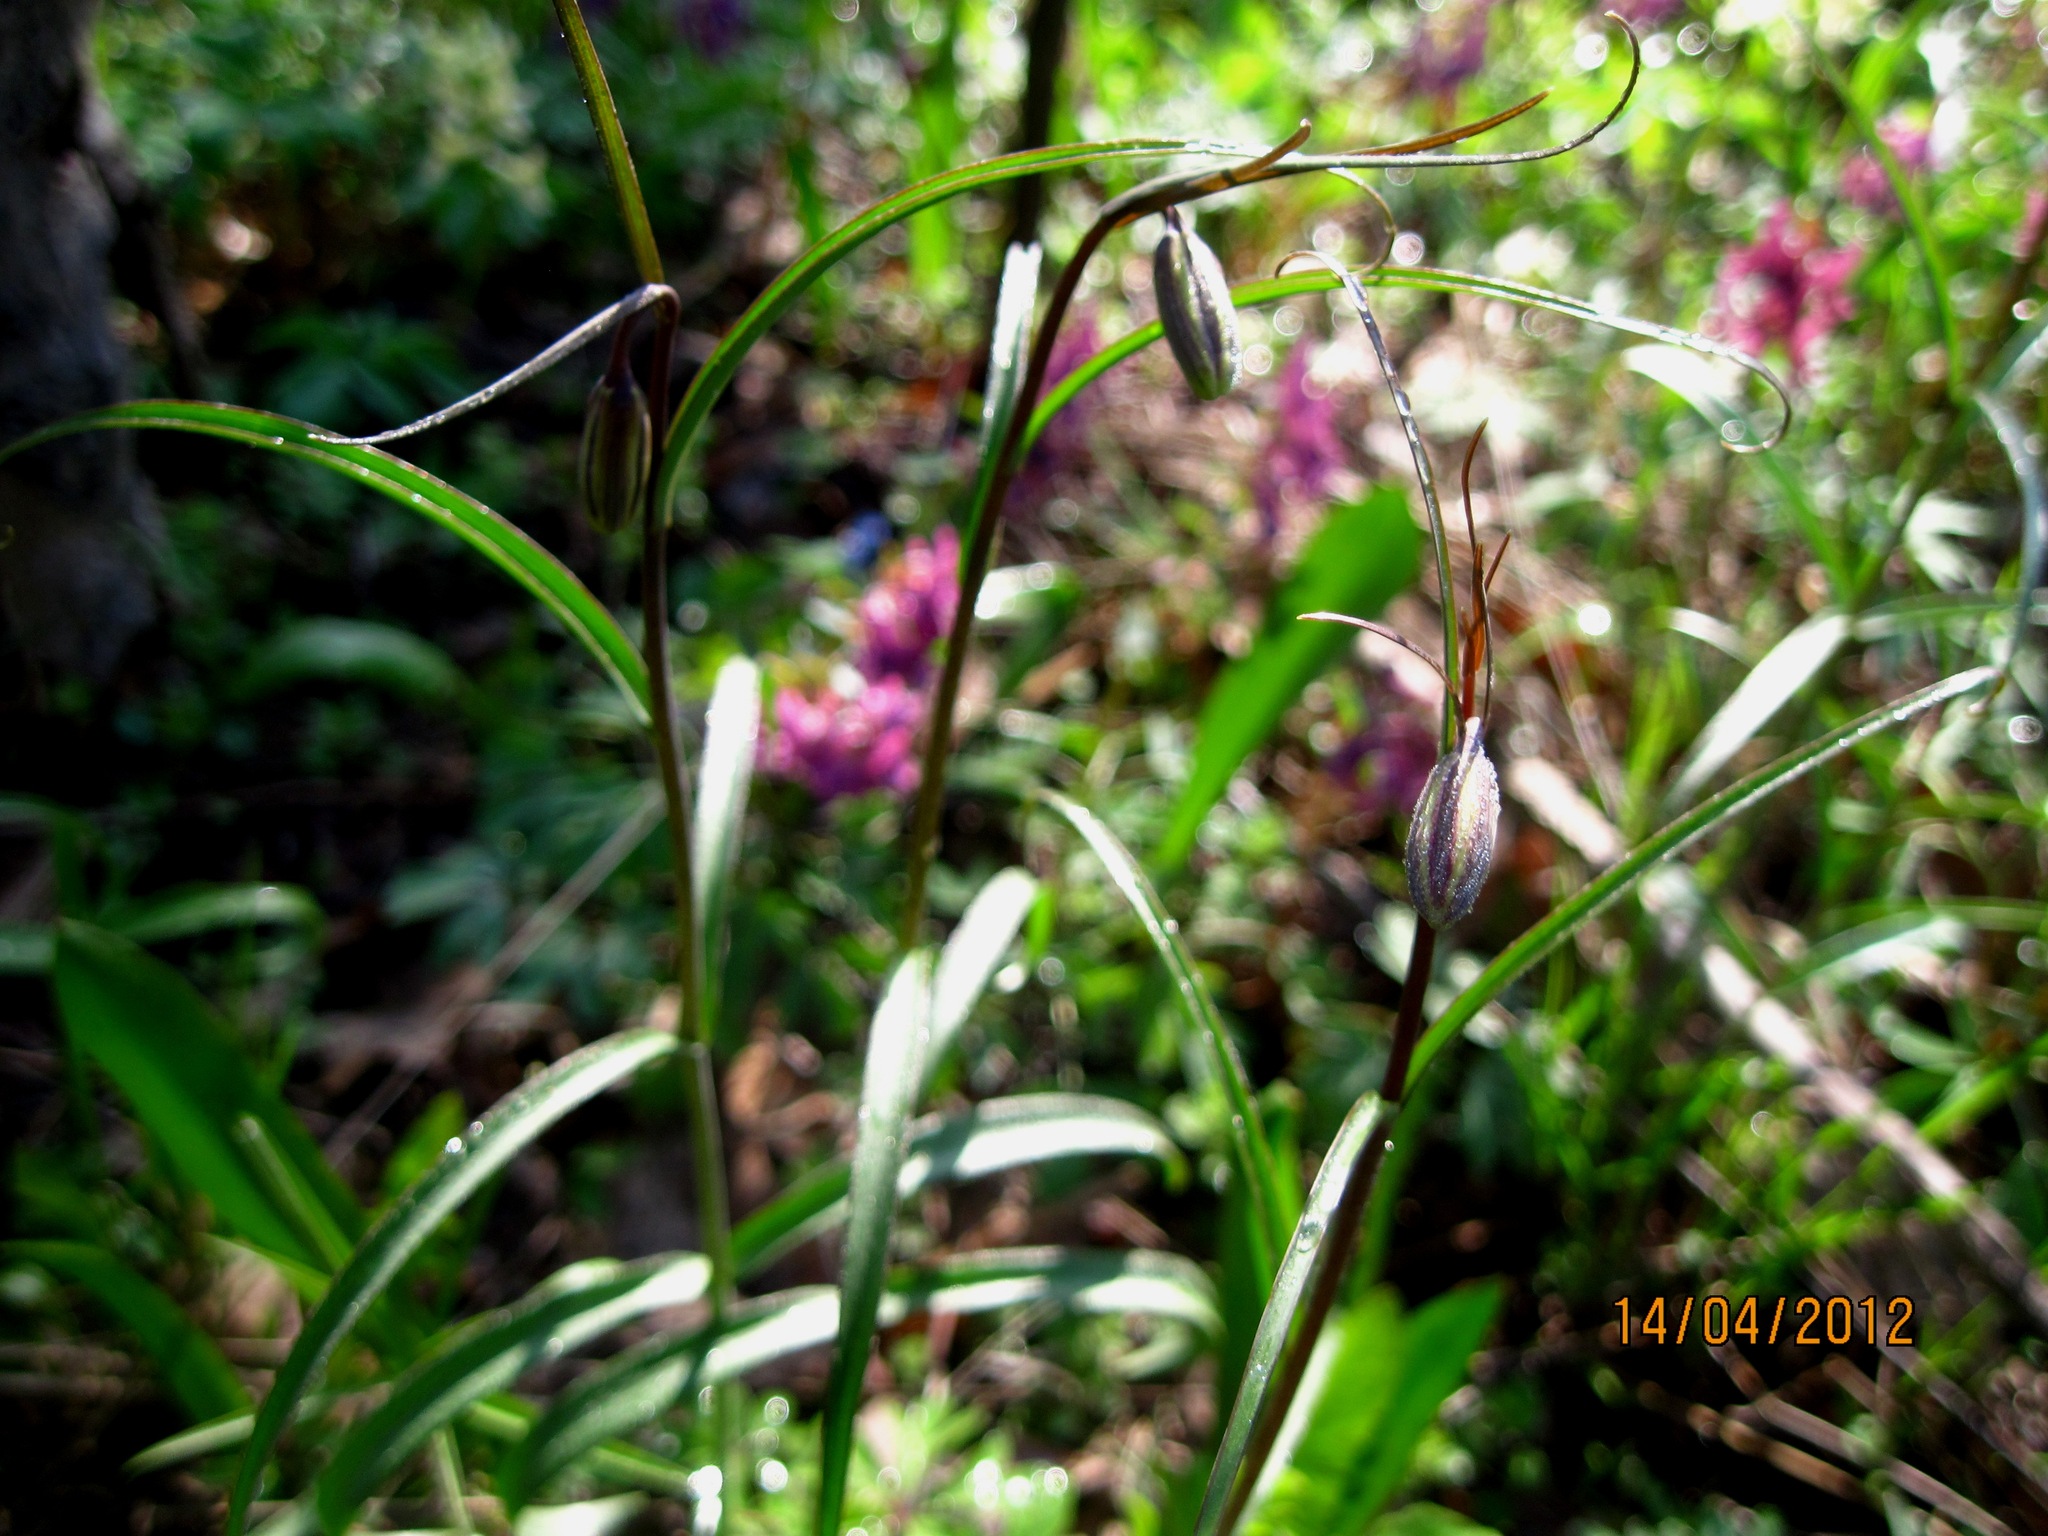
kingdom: Plantae
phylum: Tracheophyta
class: Liliopsida
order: Liliales
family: Liliaceae
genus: Fritillaria
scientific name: Fritillaria ruthenica
